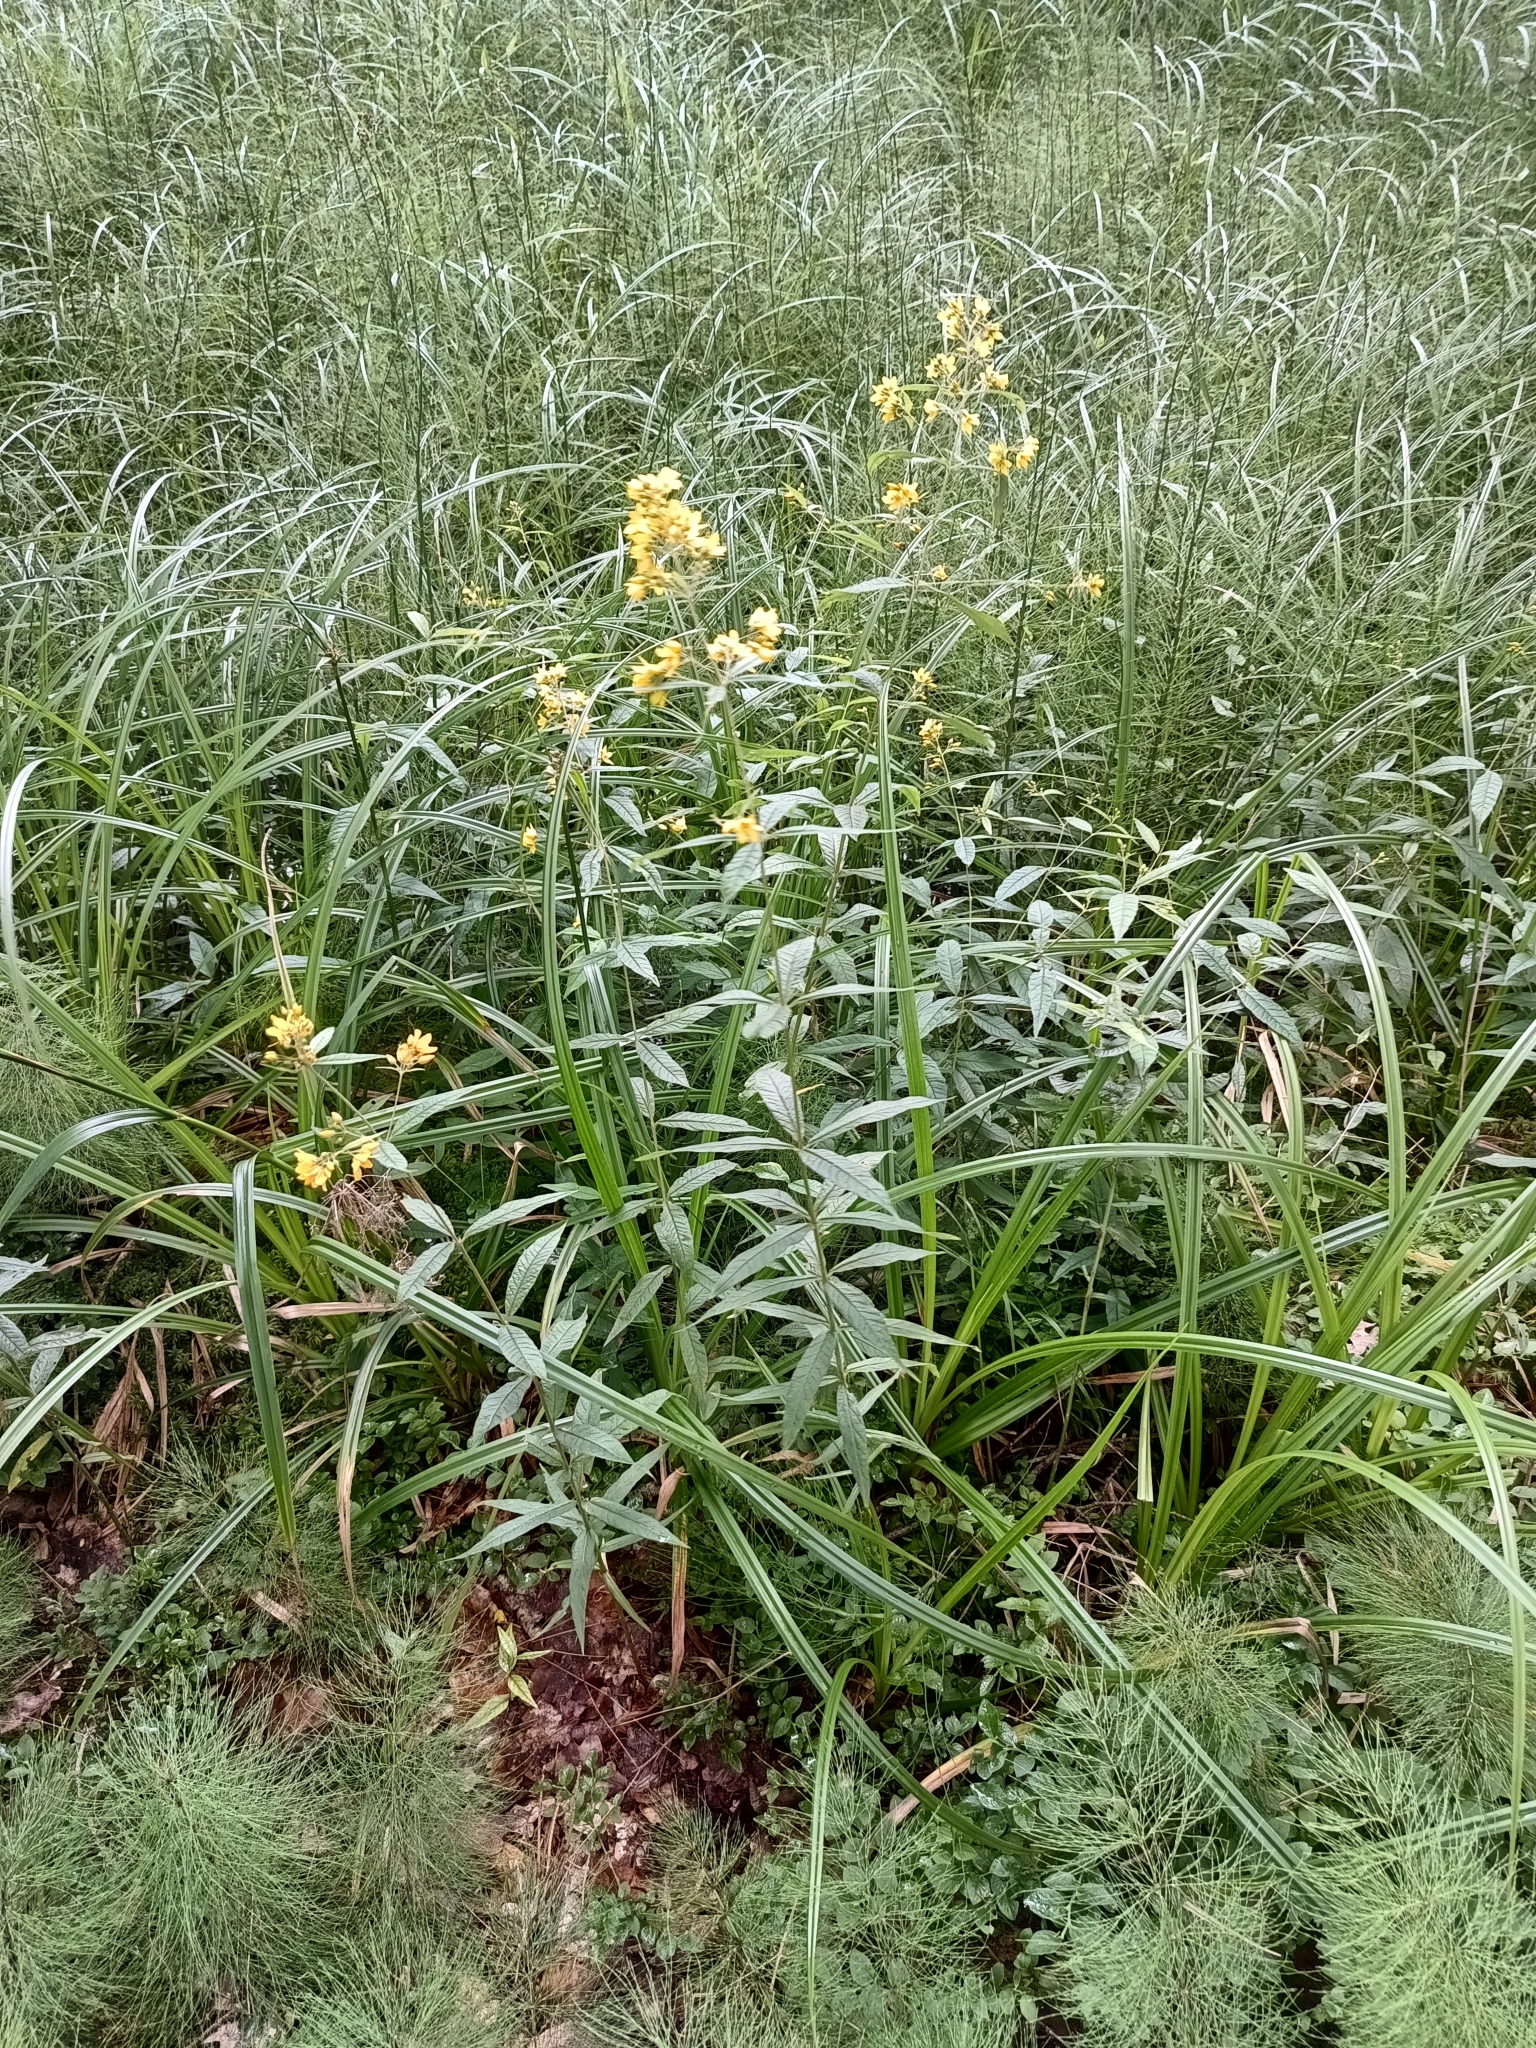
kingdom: Plantae
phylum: Tracheophyta
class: Magnoliopsida
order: Ericales
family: Primulaceae
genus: Lysimachia
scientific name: Lysimachia vulgaris
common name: Yellow loosestrife
